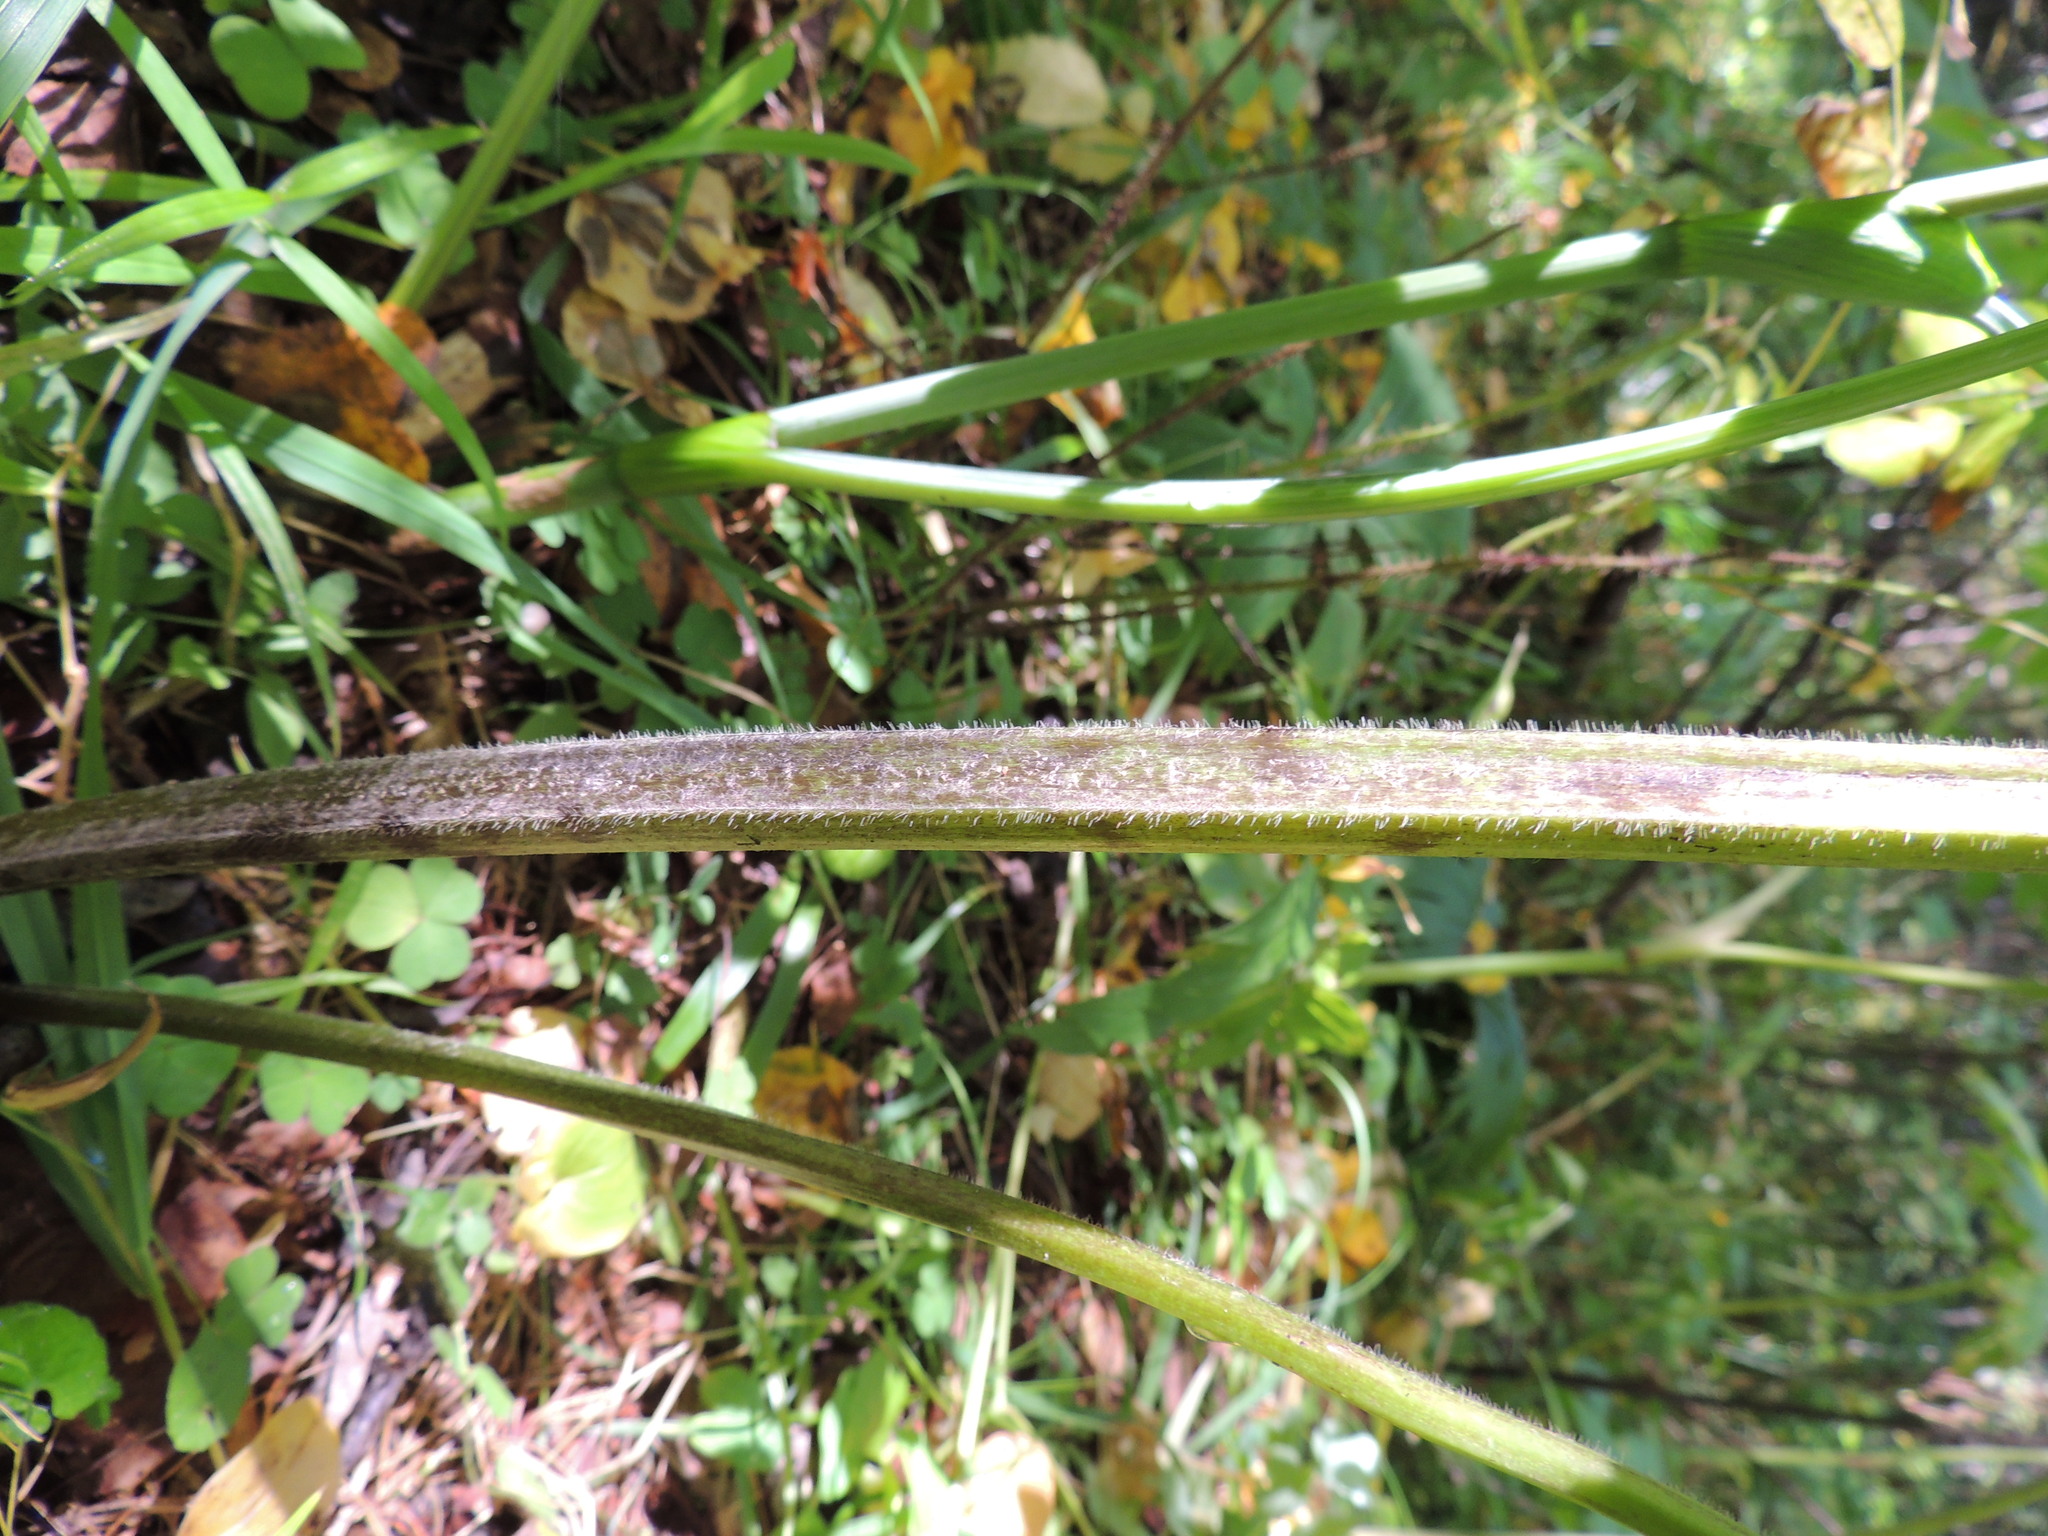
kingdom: Plantae
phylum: Tracheophyta
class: Magnoliopsida
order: Ranunculales
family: Ranunculaceae
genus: Aconitum
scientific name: Aconitum septentrionale
